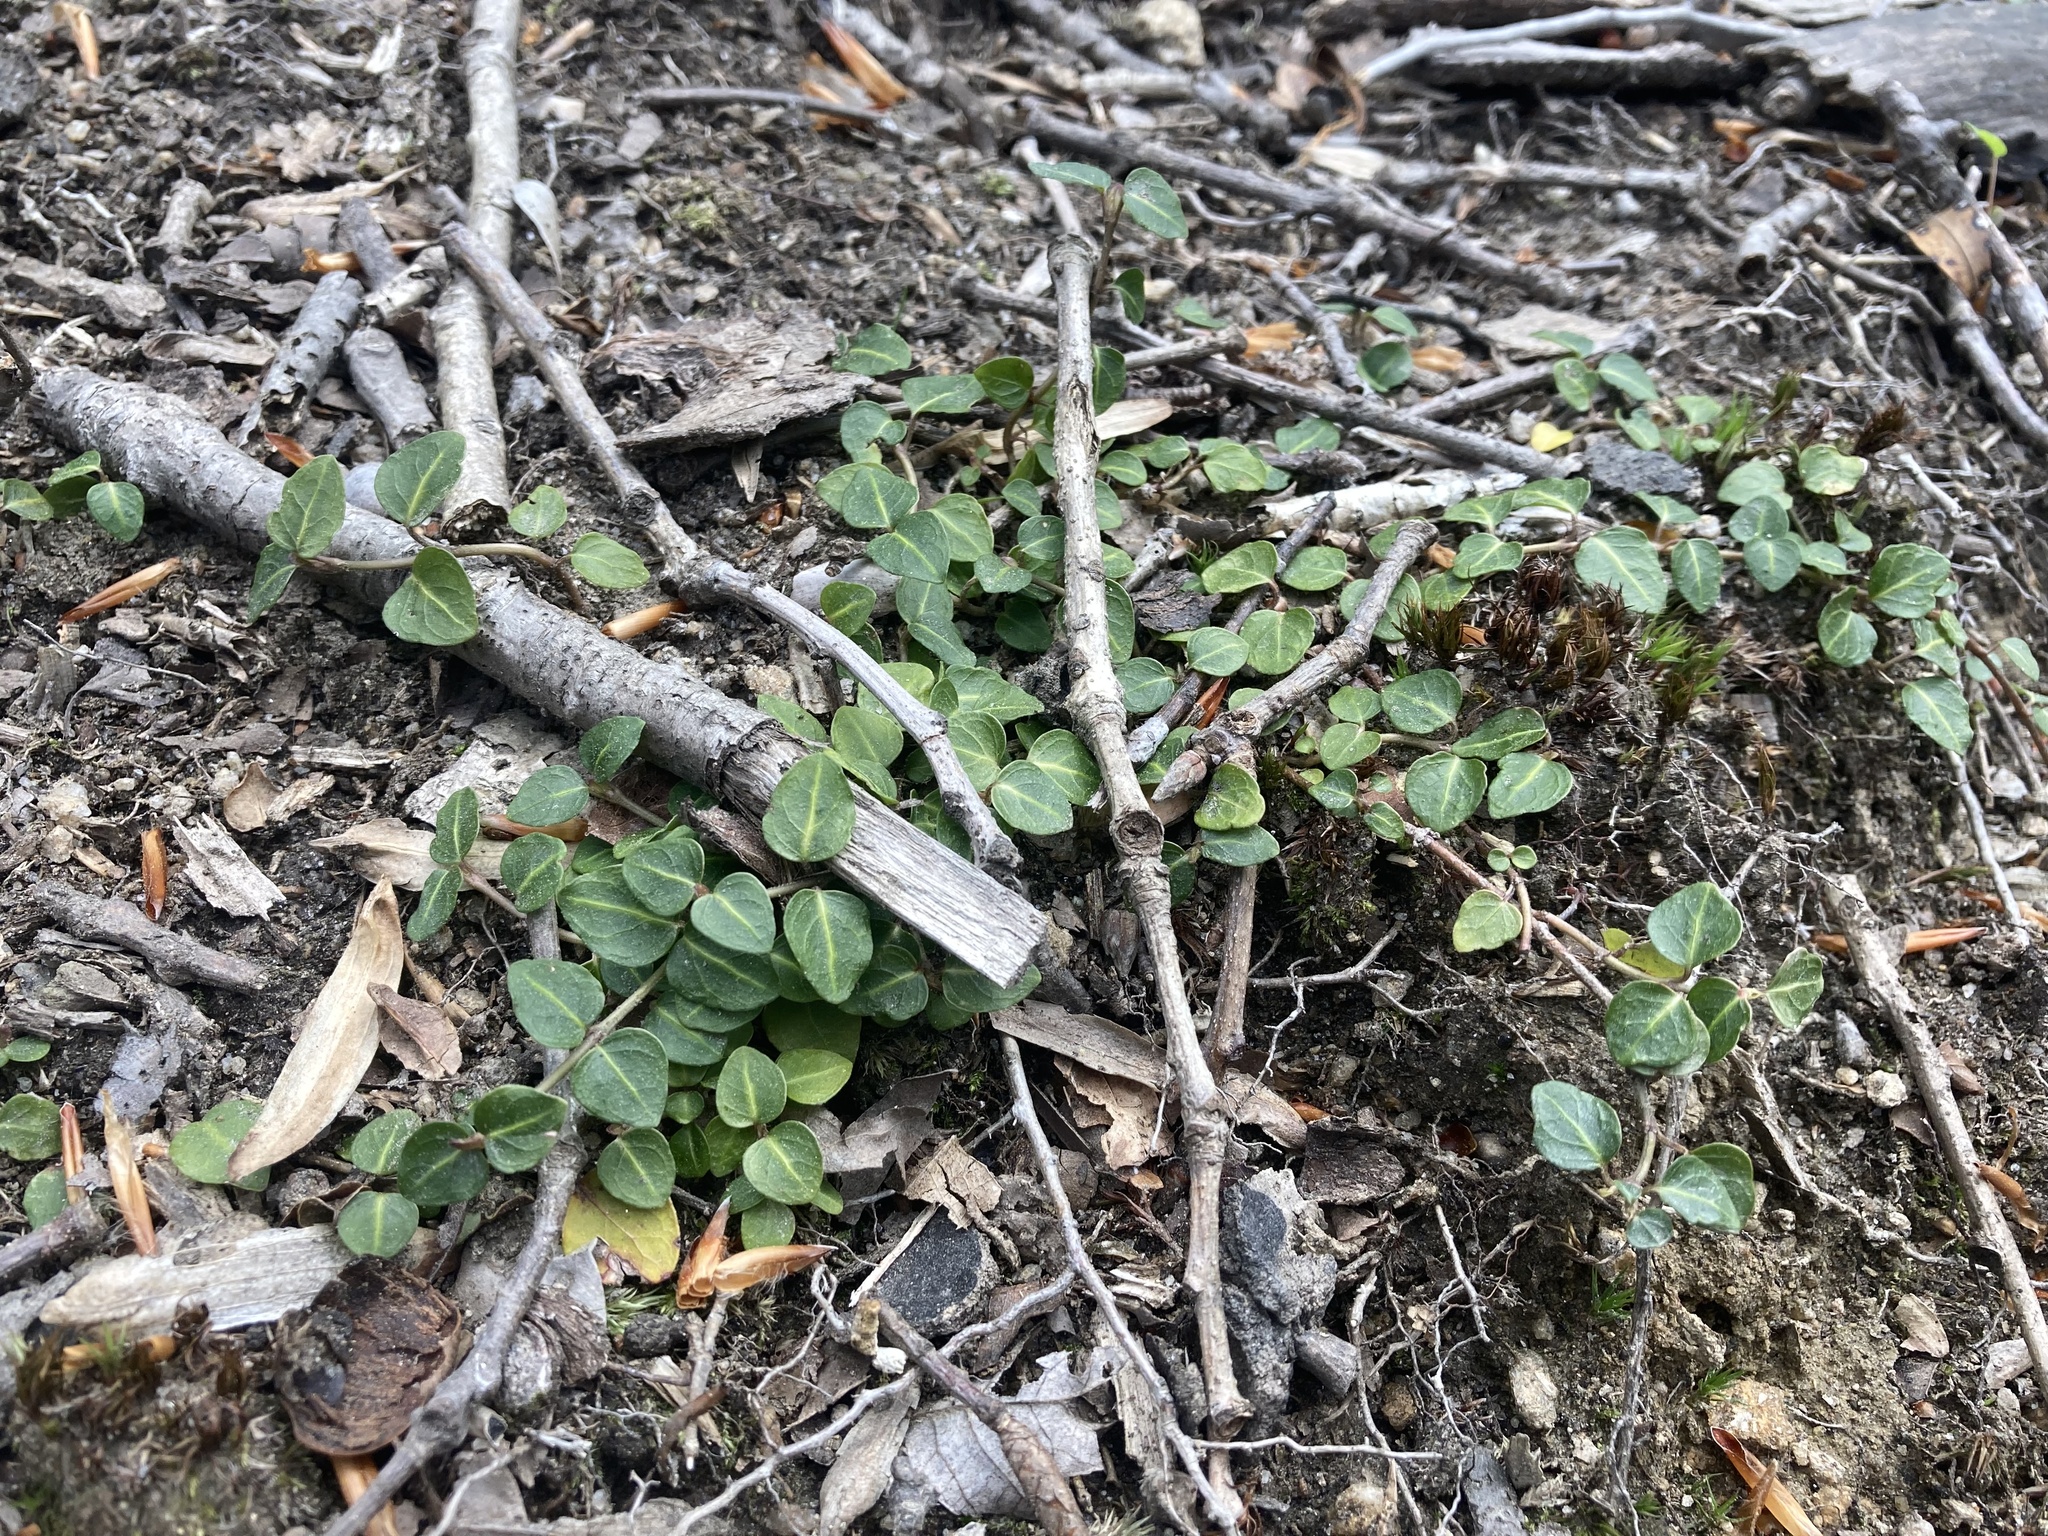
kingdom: Plantae
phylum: Tracheophyta
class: Magnoliopsida
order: Gentianales
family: Rubiaceae
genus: Mitchella
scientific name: Mitchella repens
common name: Partridge-berry
